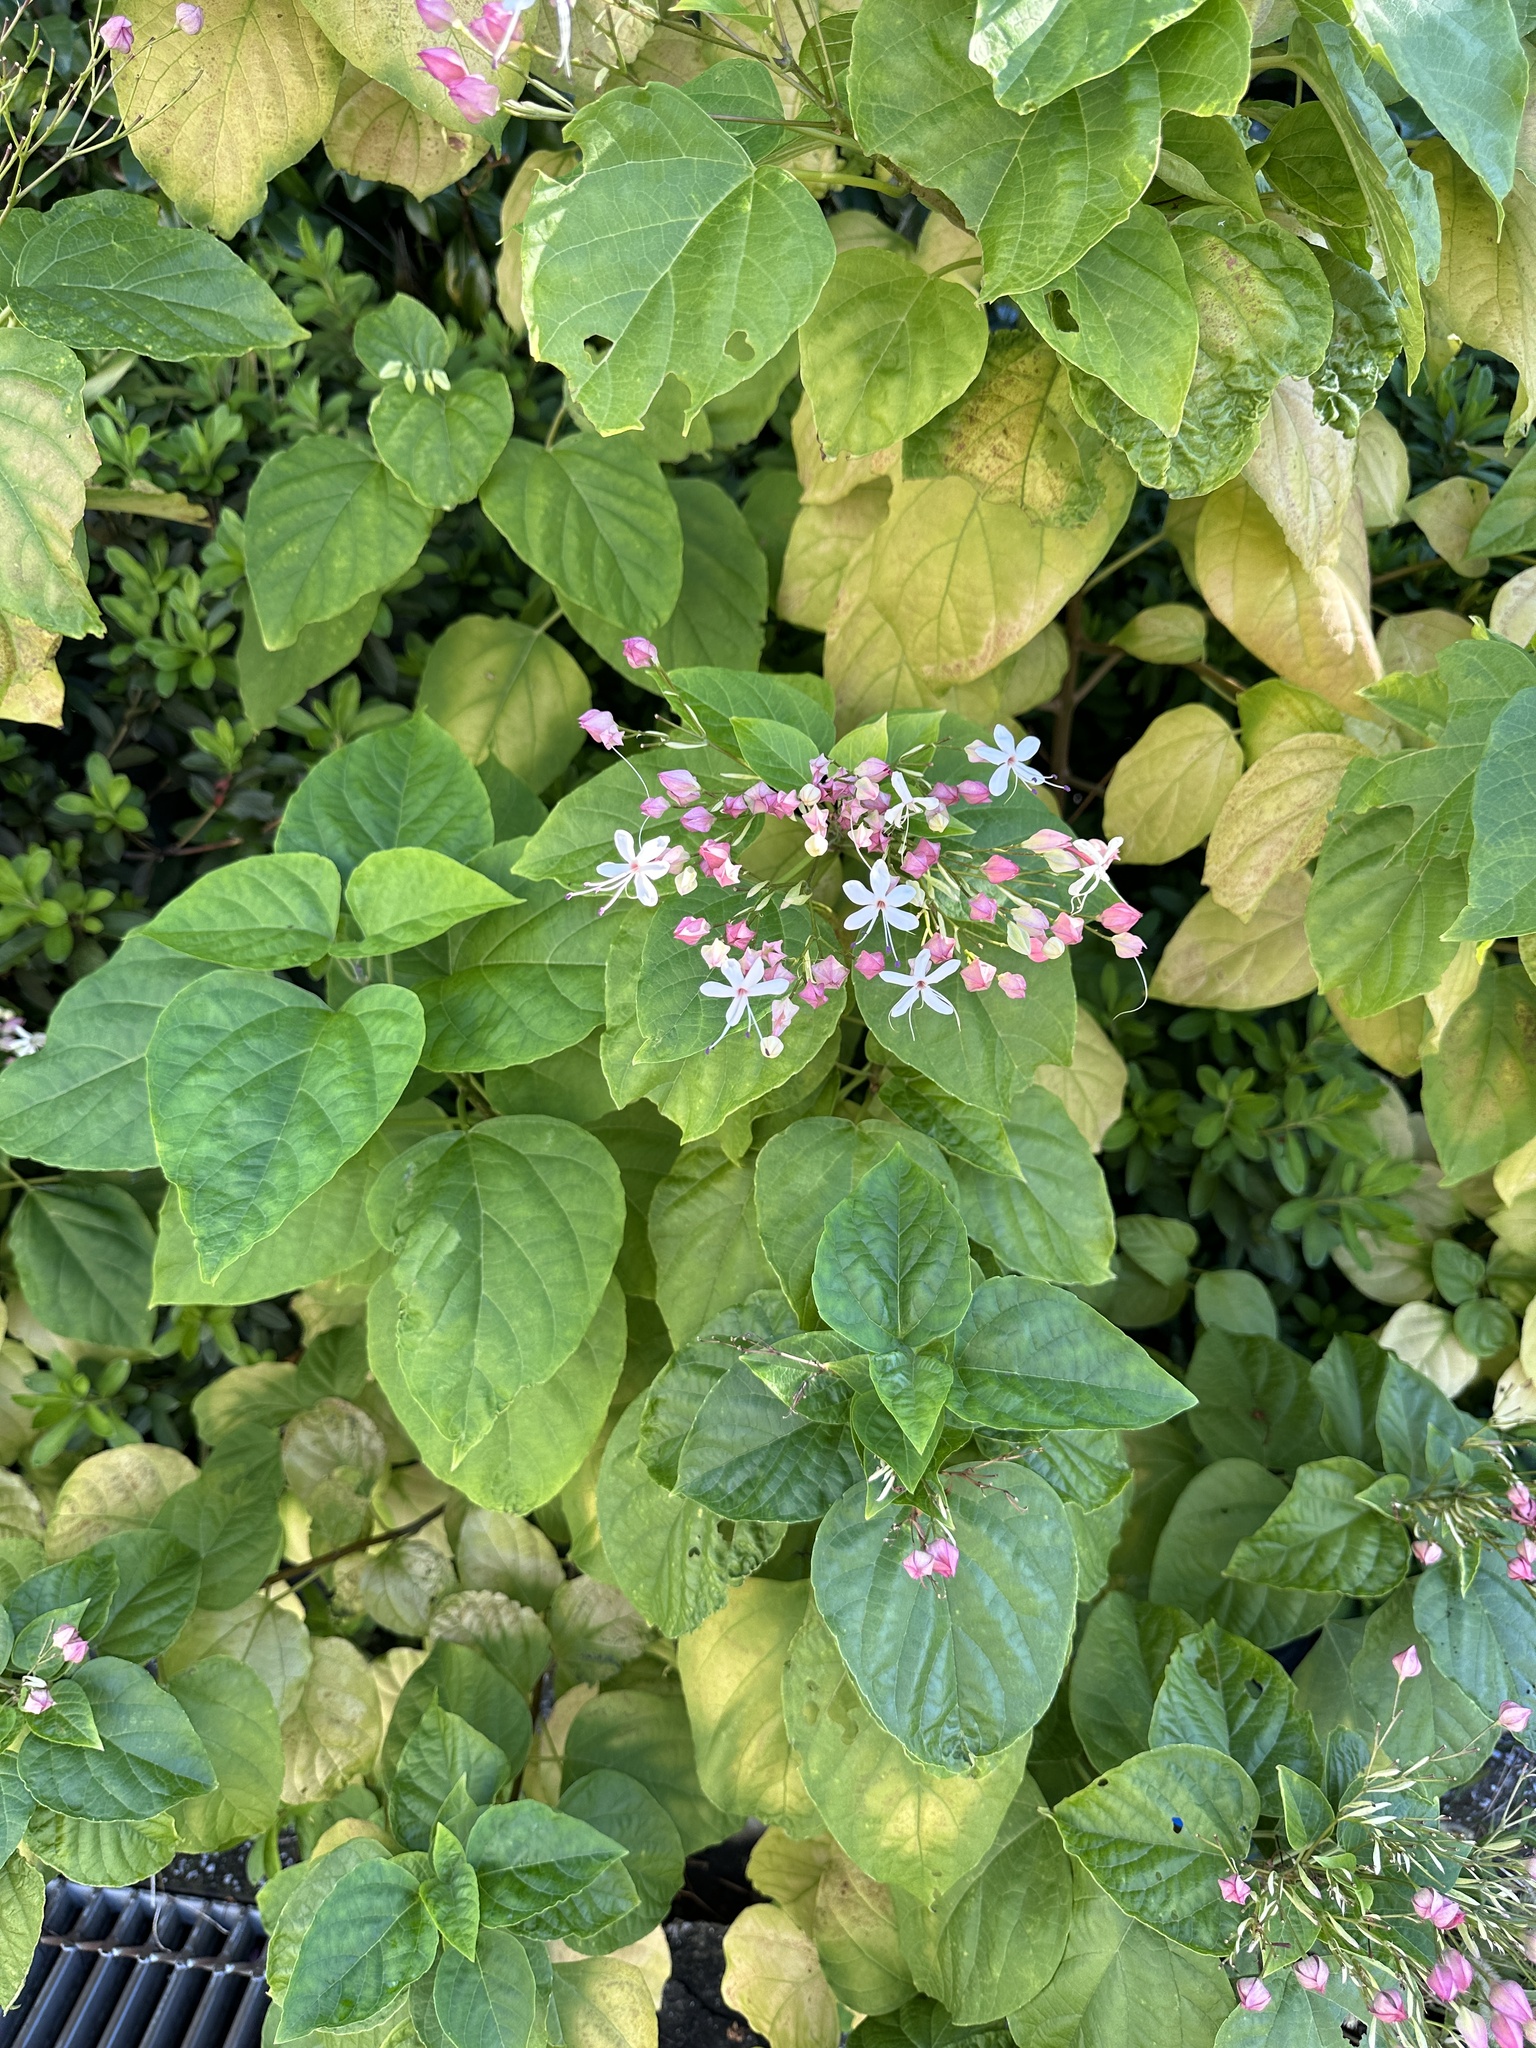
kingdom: Plantae
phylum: Tracheophyta
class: Magnoliopsida
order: Lamiales
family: Lamiaceae
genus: Clerodendrum
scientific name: Clerodendrum trichotomum
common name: Harlequin glorybower
